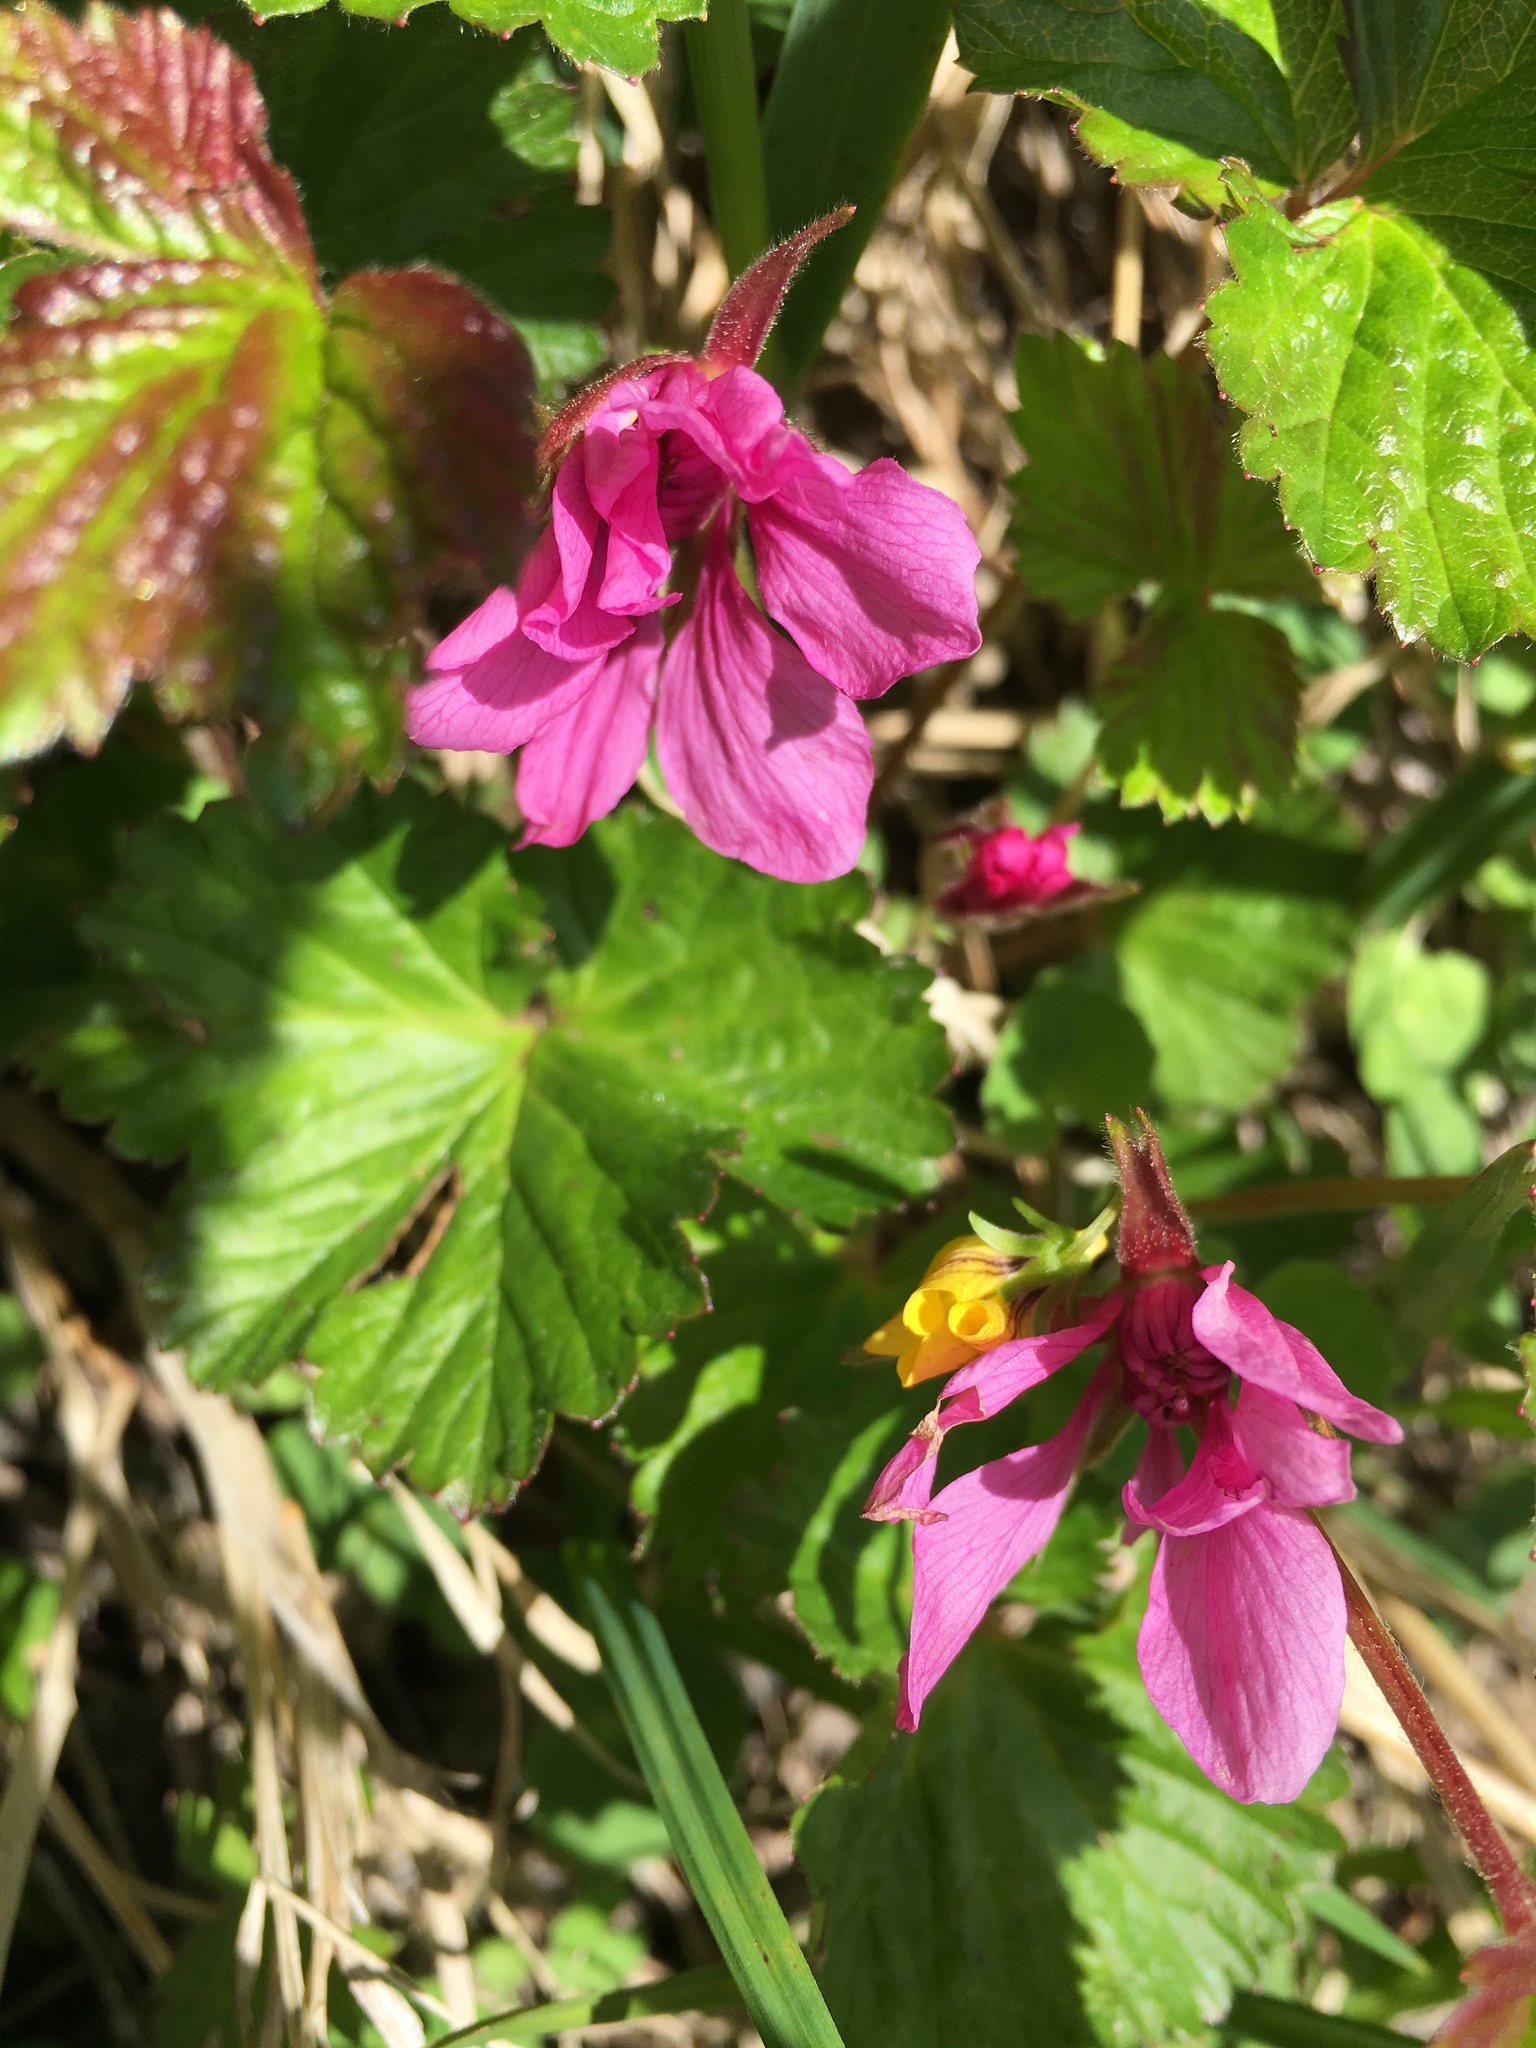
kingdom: Plantae
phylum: Tracheophyta
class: Magnoliopsida
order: Rosales
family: Rosaceae
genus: Rubus
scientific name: Rubus arcticus
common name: Arctic bramble
